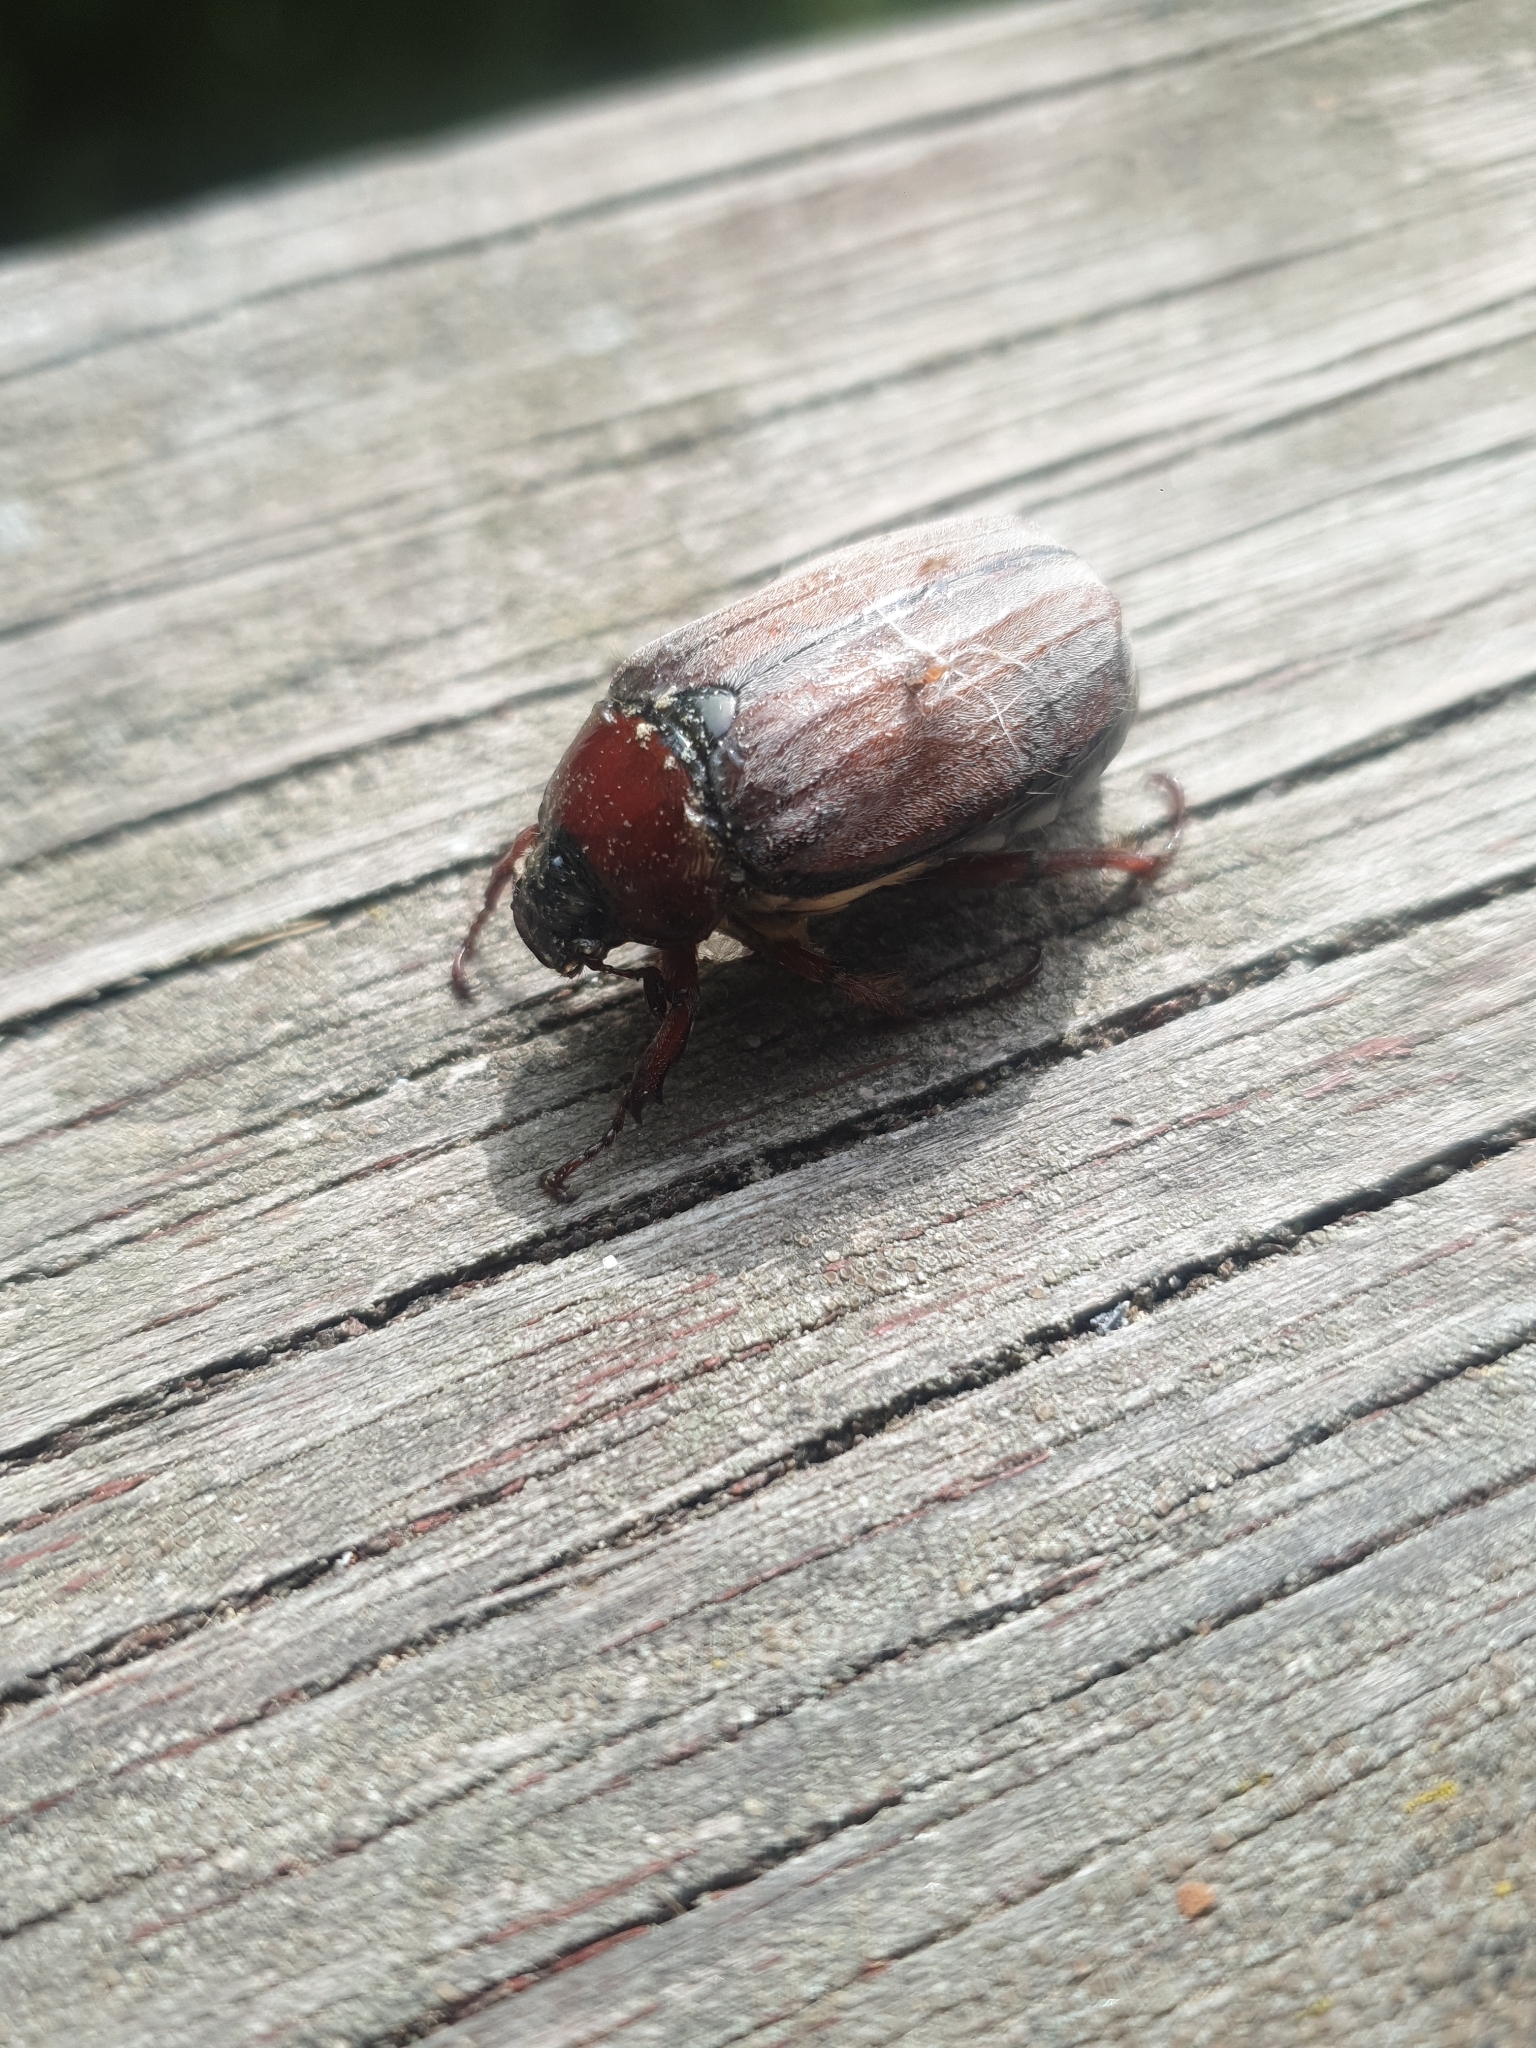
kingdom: Animalia
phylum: Arthropoda
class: Insecta
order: Coleoptera
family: Scarabaeidae
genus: Melolontha
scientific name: Melolontha hippocastani
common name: Chestnut cockchafer
